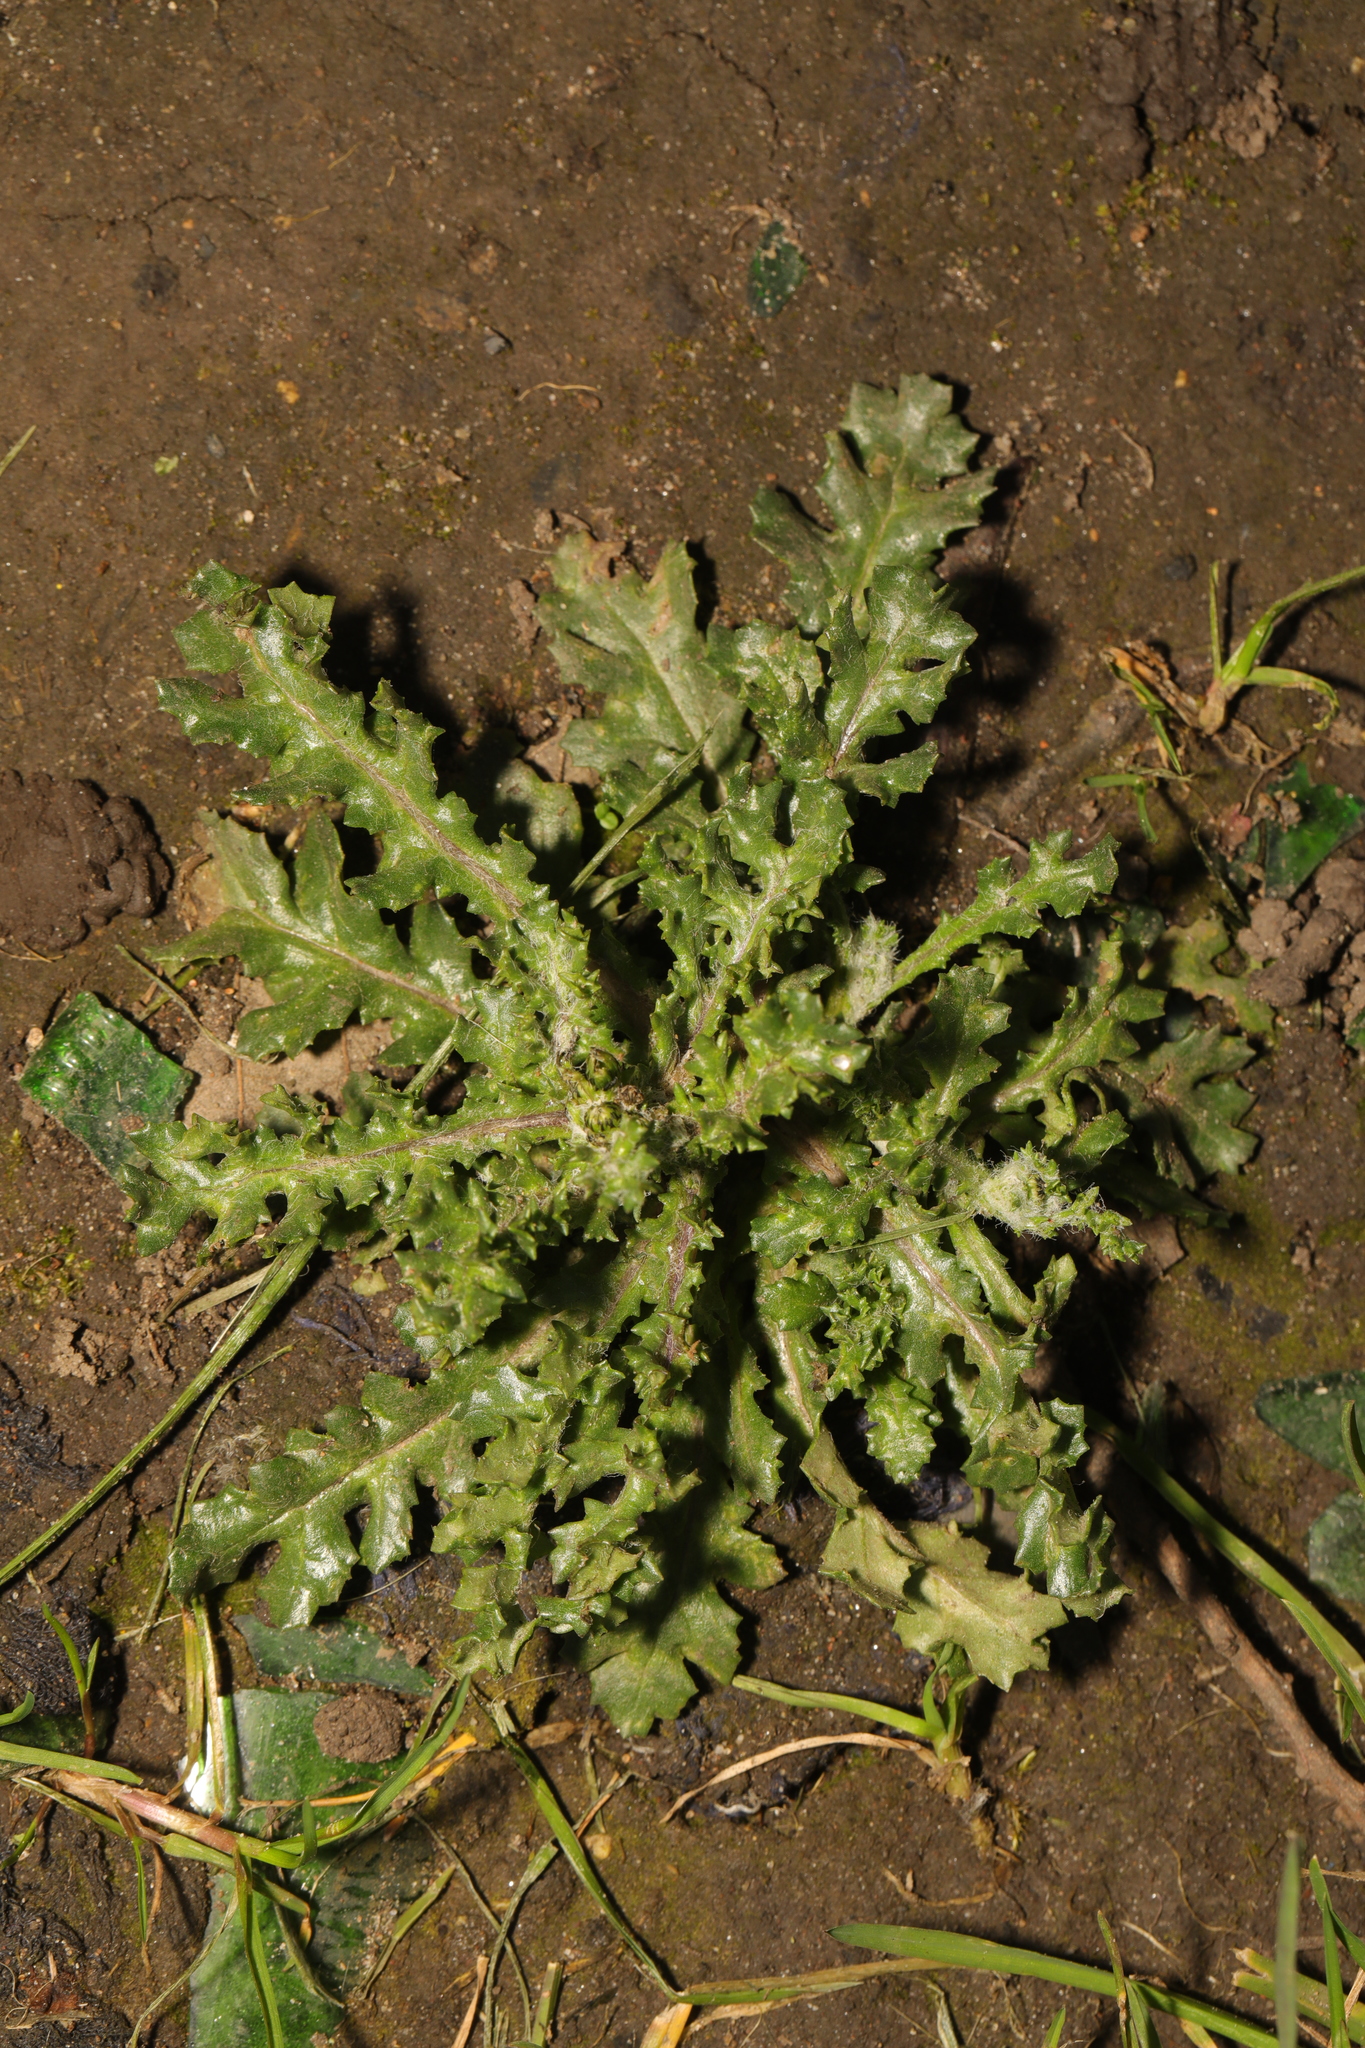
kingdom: Plantae
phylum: Tracheophyta
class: Magnoliopsida
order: Asterales
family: Asteraceae
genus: Senecio
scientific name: Senecio vulgaris
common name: Old-man-in-the-spring
